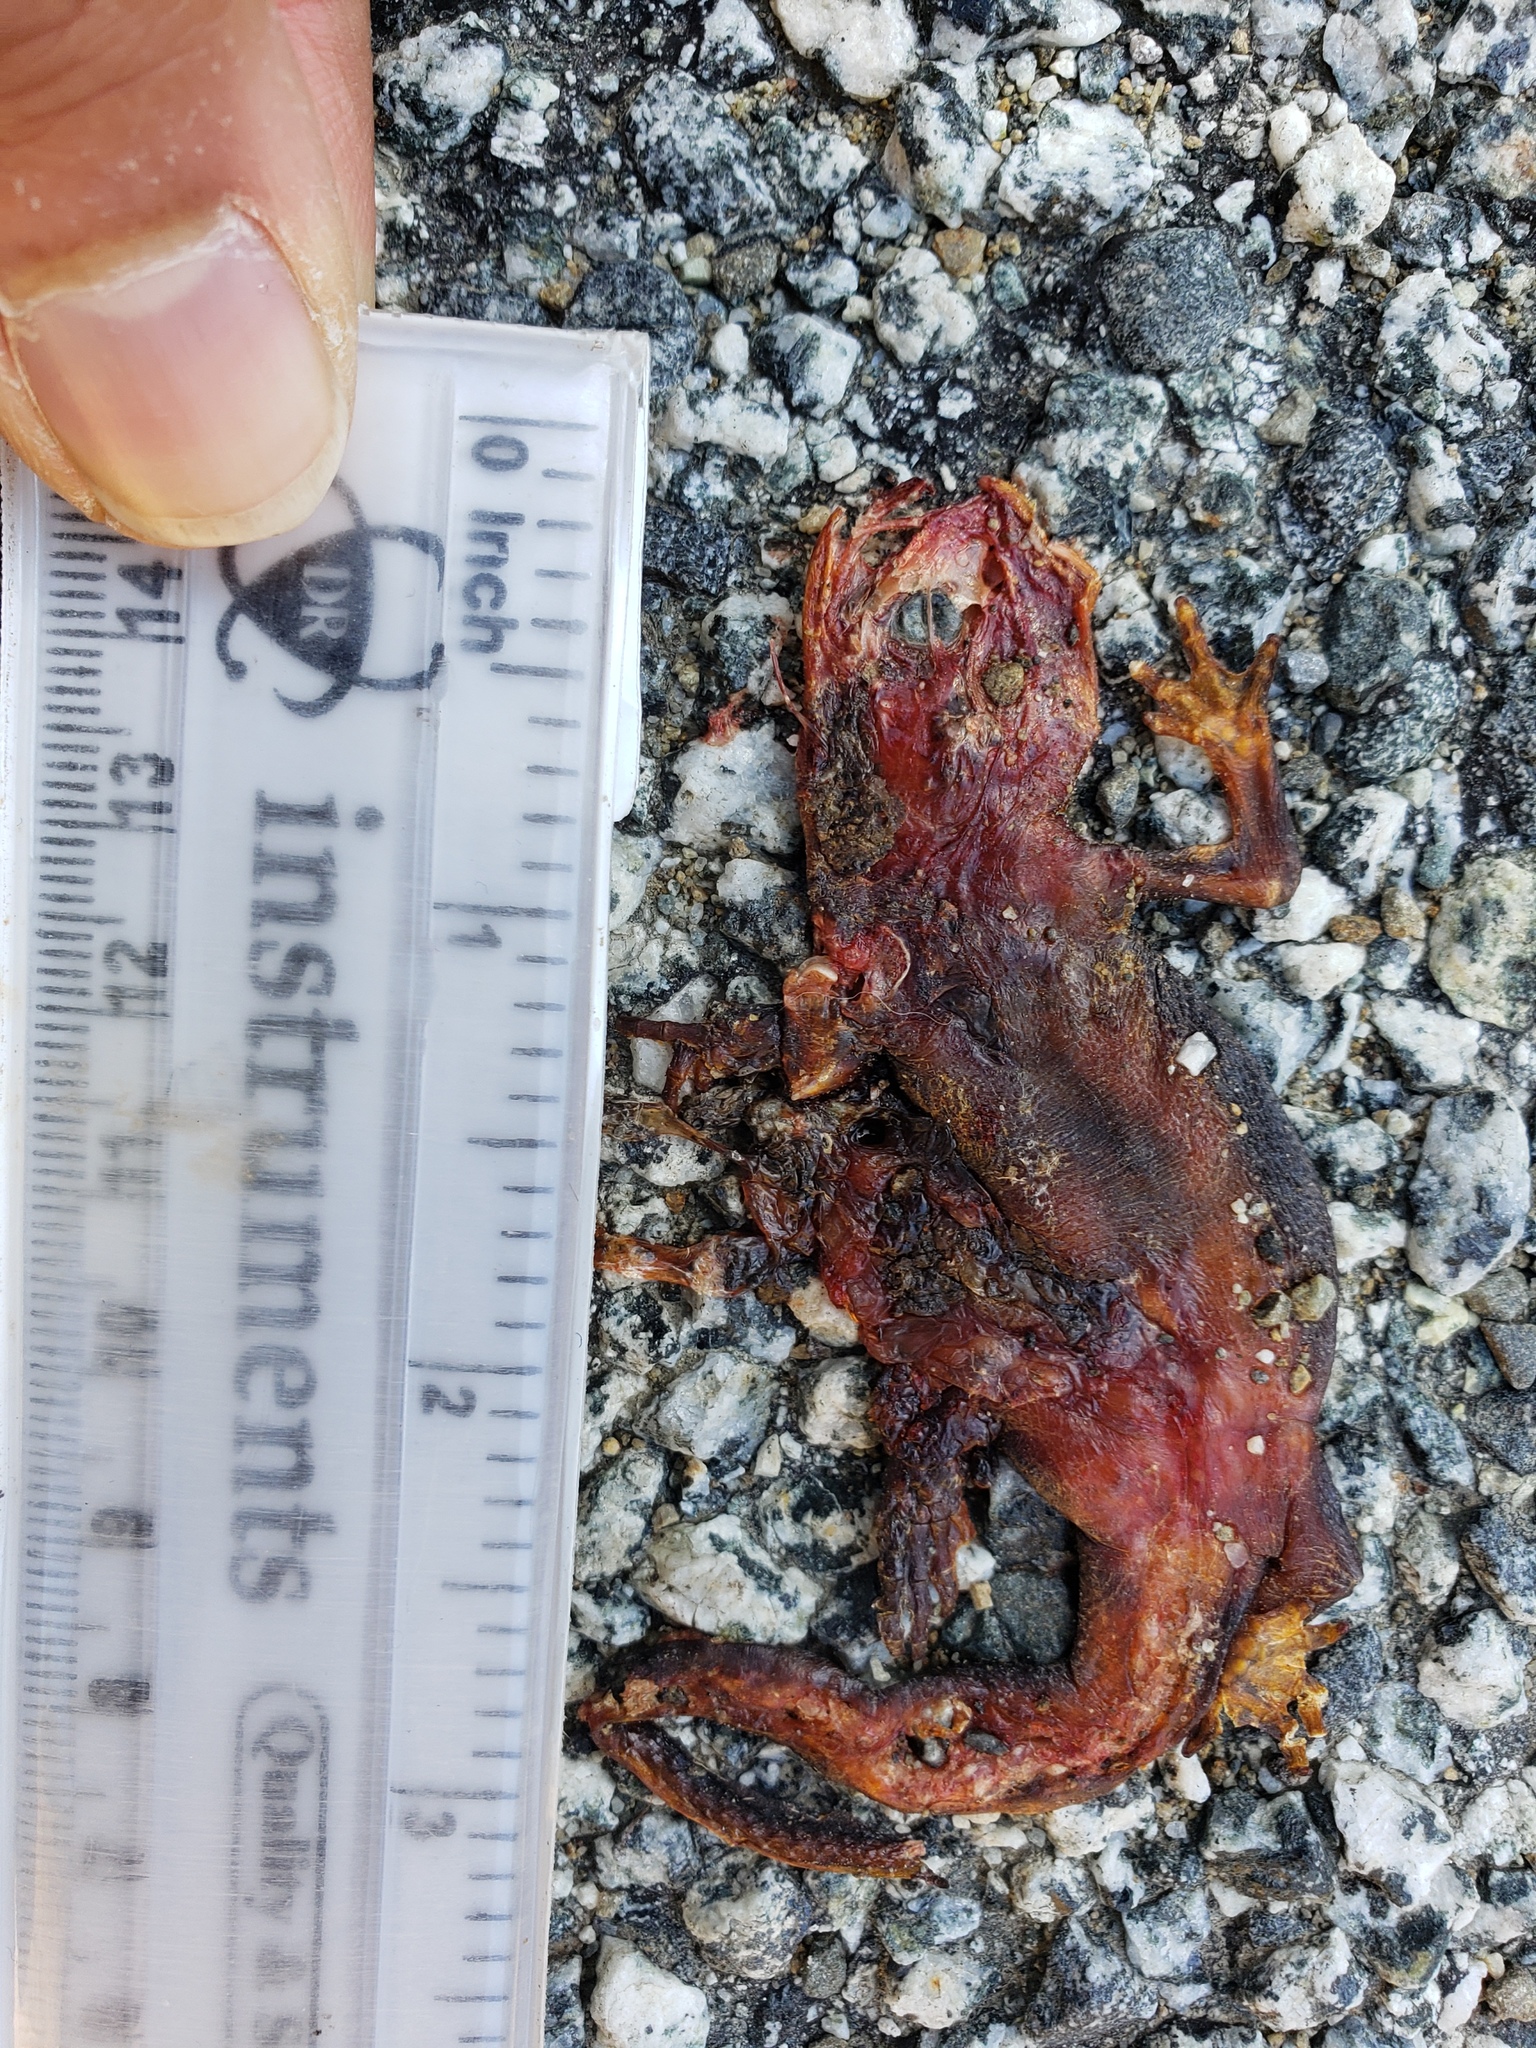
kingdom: Animalia
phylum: Chordata
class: Amphibia
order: Caudata
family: Salamandridae
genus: Taricha
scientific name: Taricha
